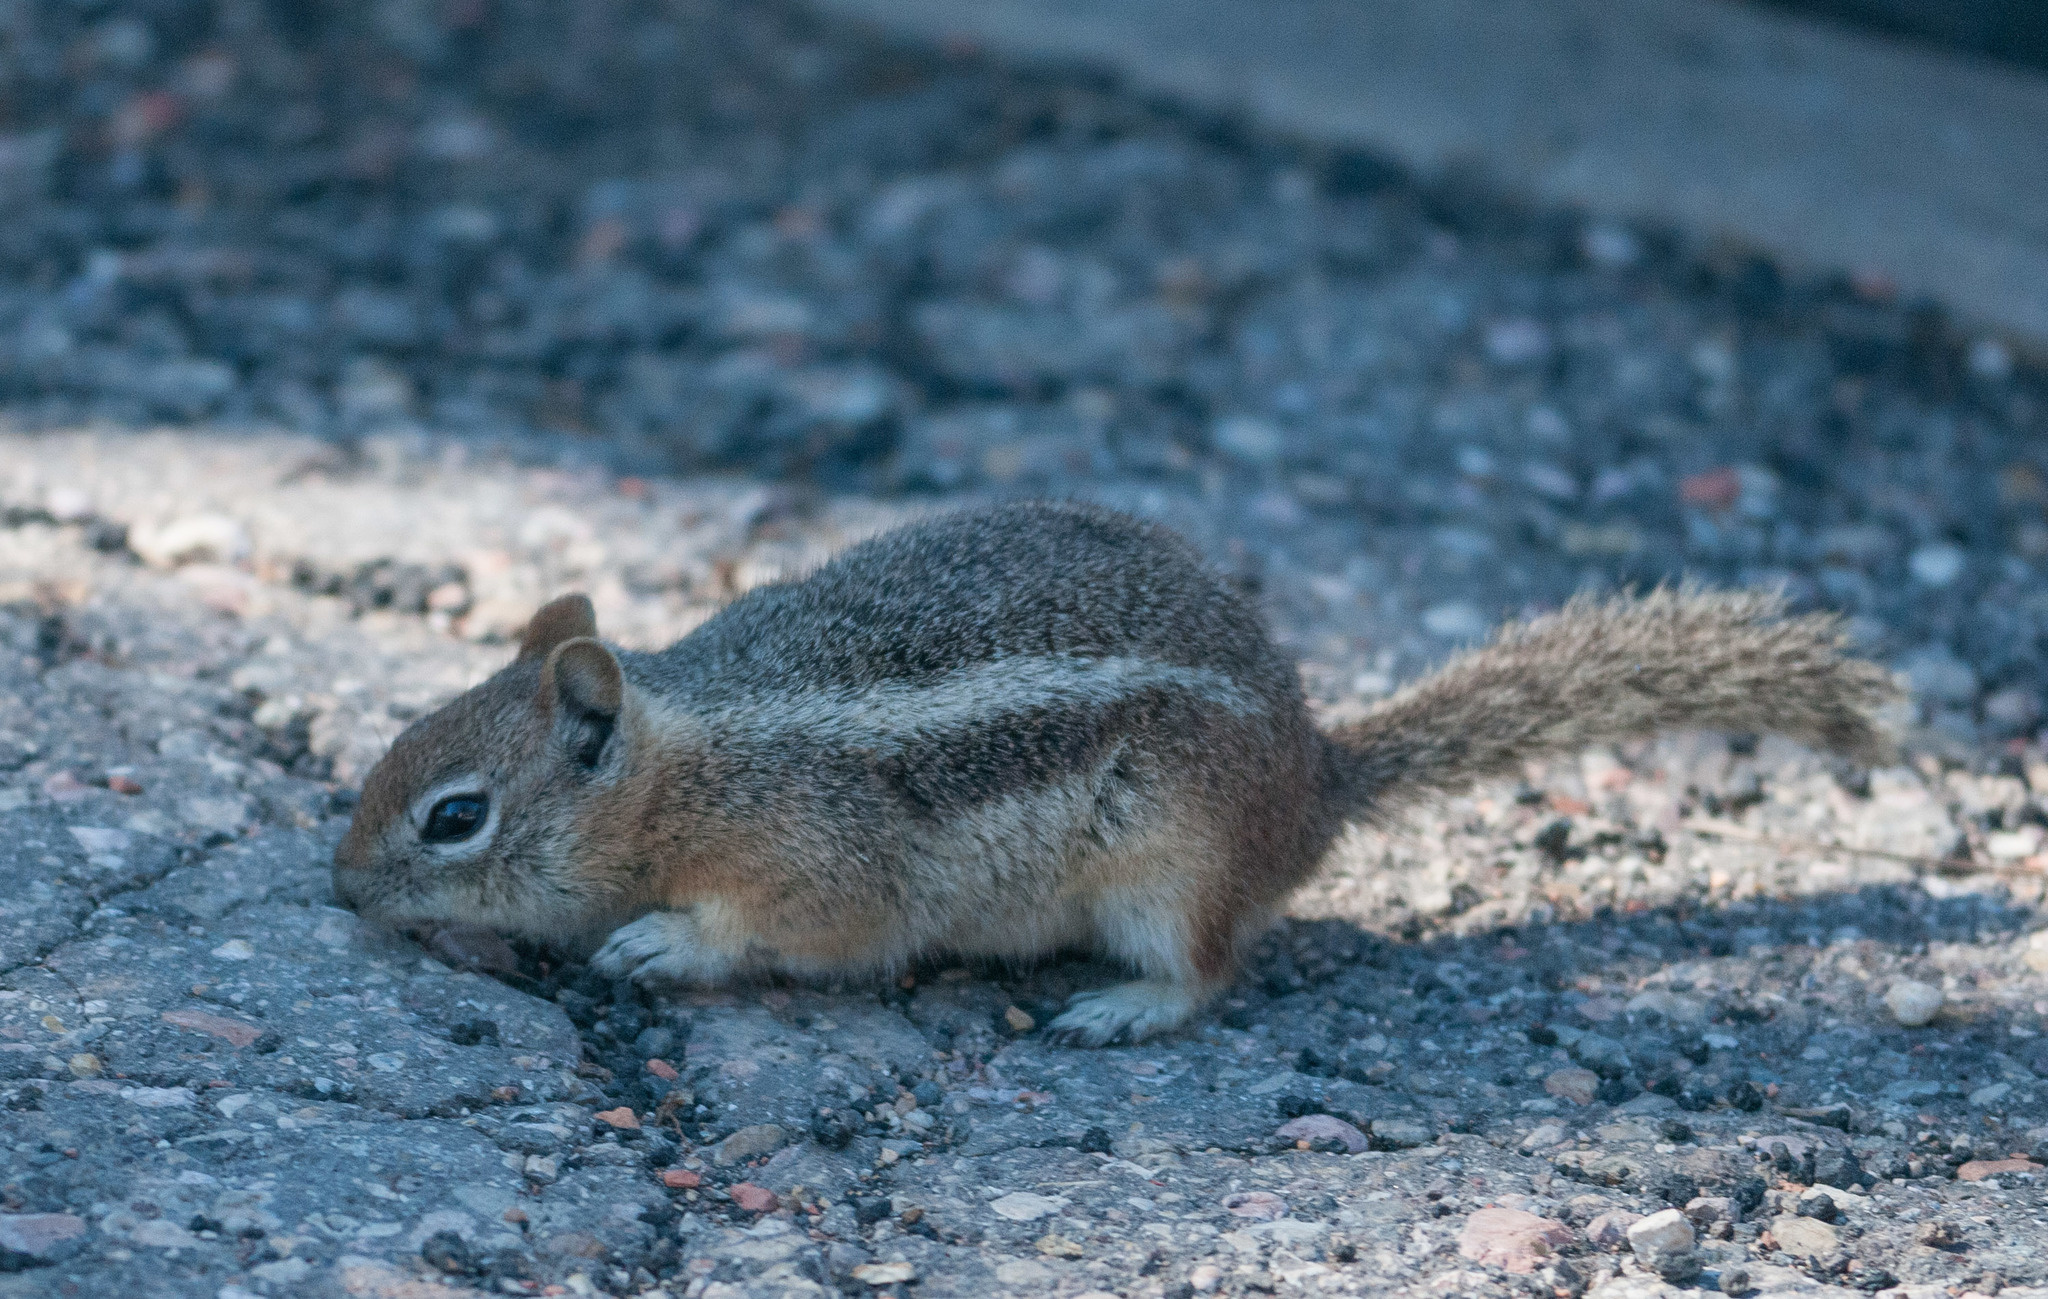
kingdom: Animalia
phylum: Chordata
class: Mammalia
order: Rodentia
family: Sciuridae
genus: Callospermophilus
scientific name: Callospermophilus lateralis
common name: Golden-mantled ground squirrel
